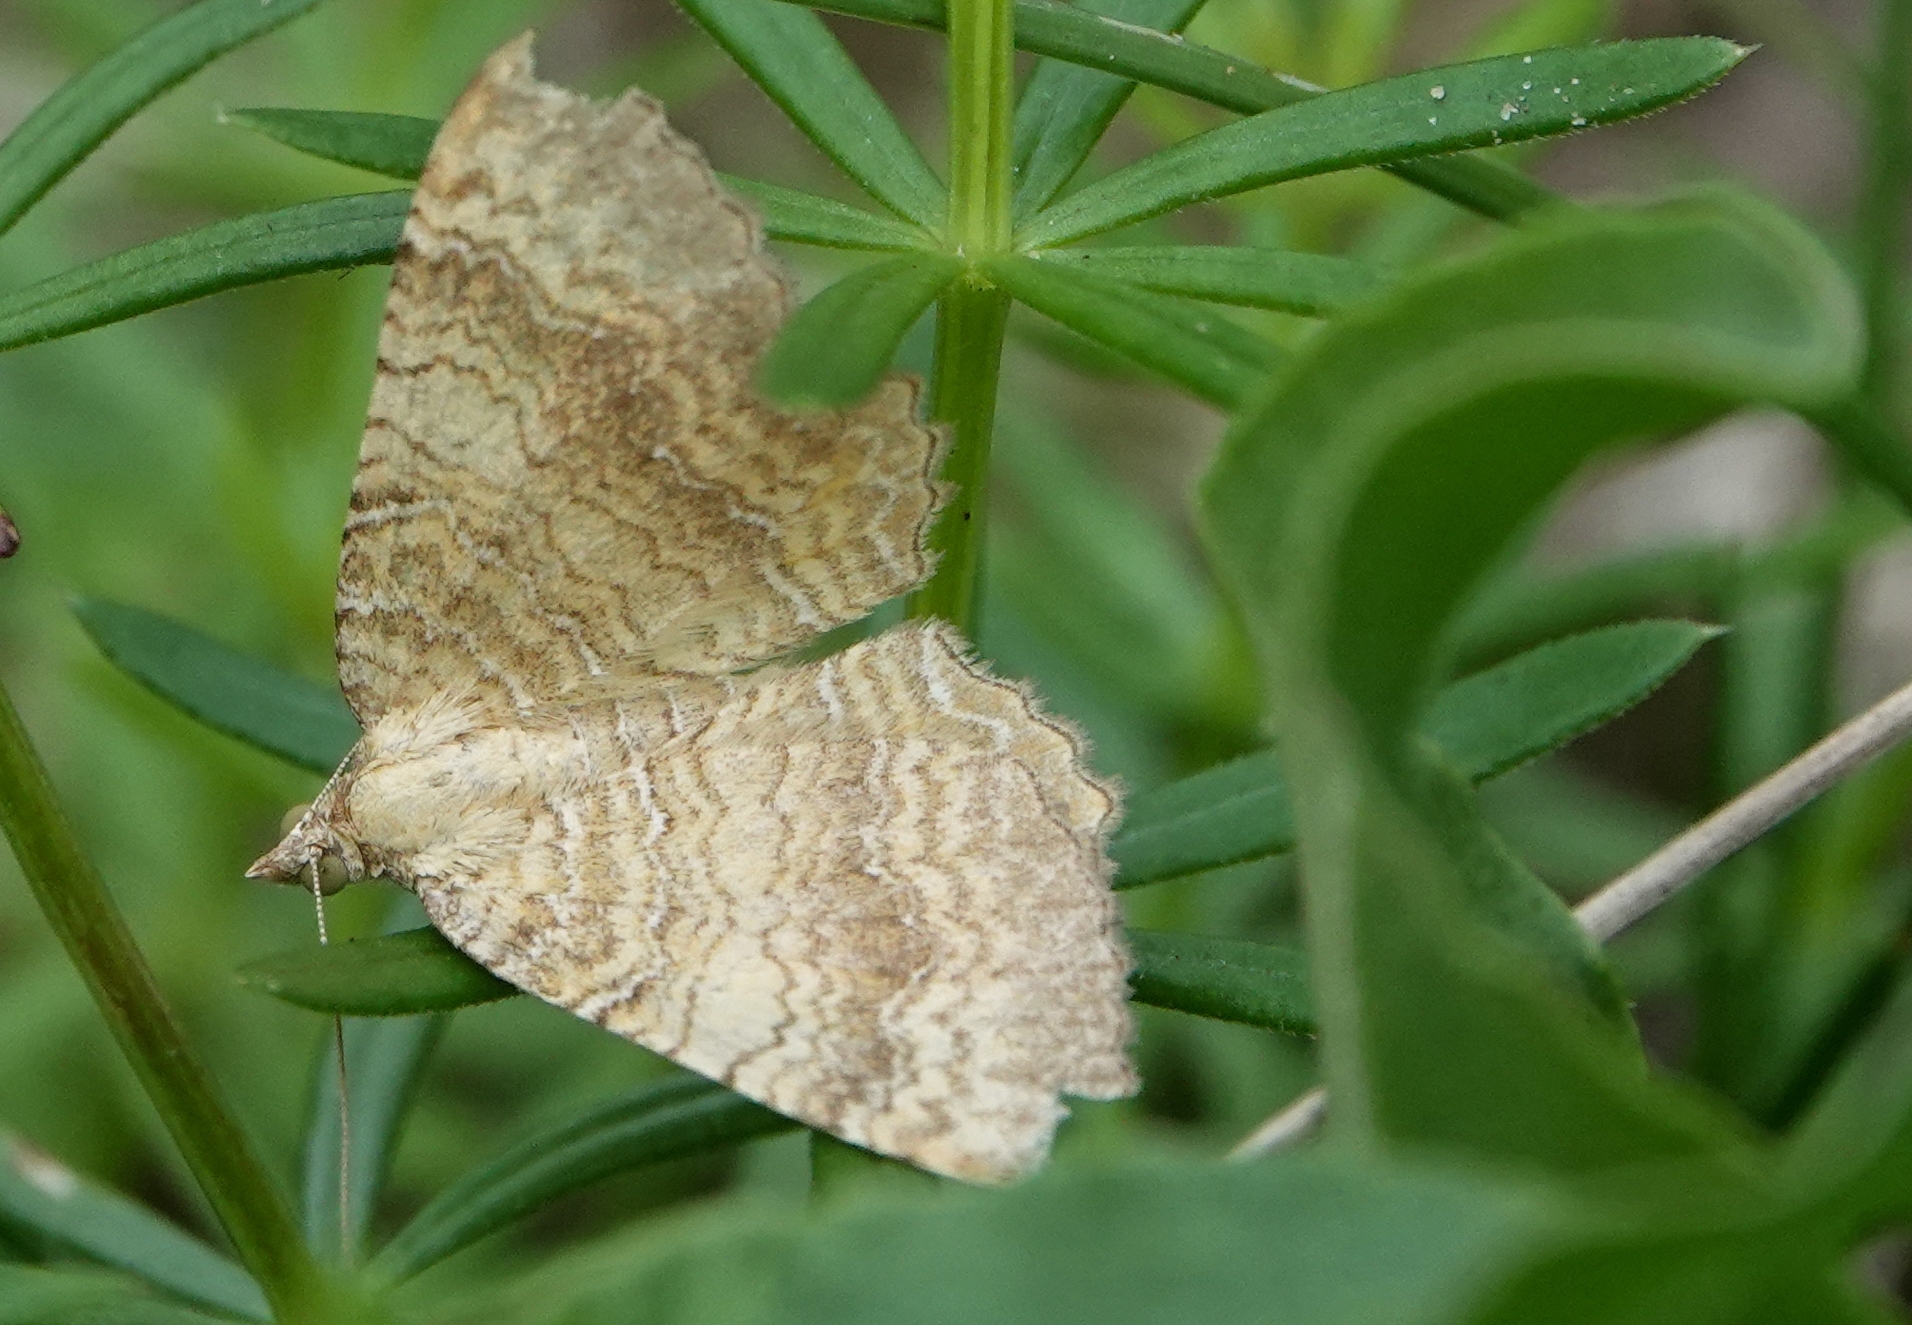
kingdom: Animalia
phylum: Arthropoda
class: Insecta
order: Lepidoptera
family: Geometridae
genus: Camptogramma
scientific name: Camptogramma bilineata
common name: Yellow shell
